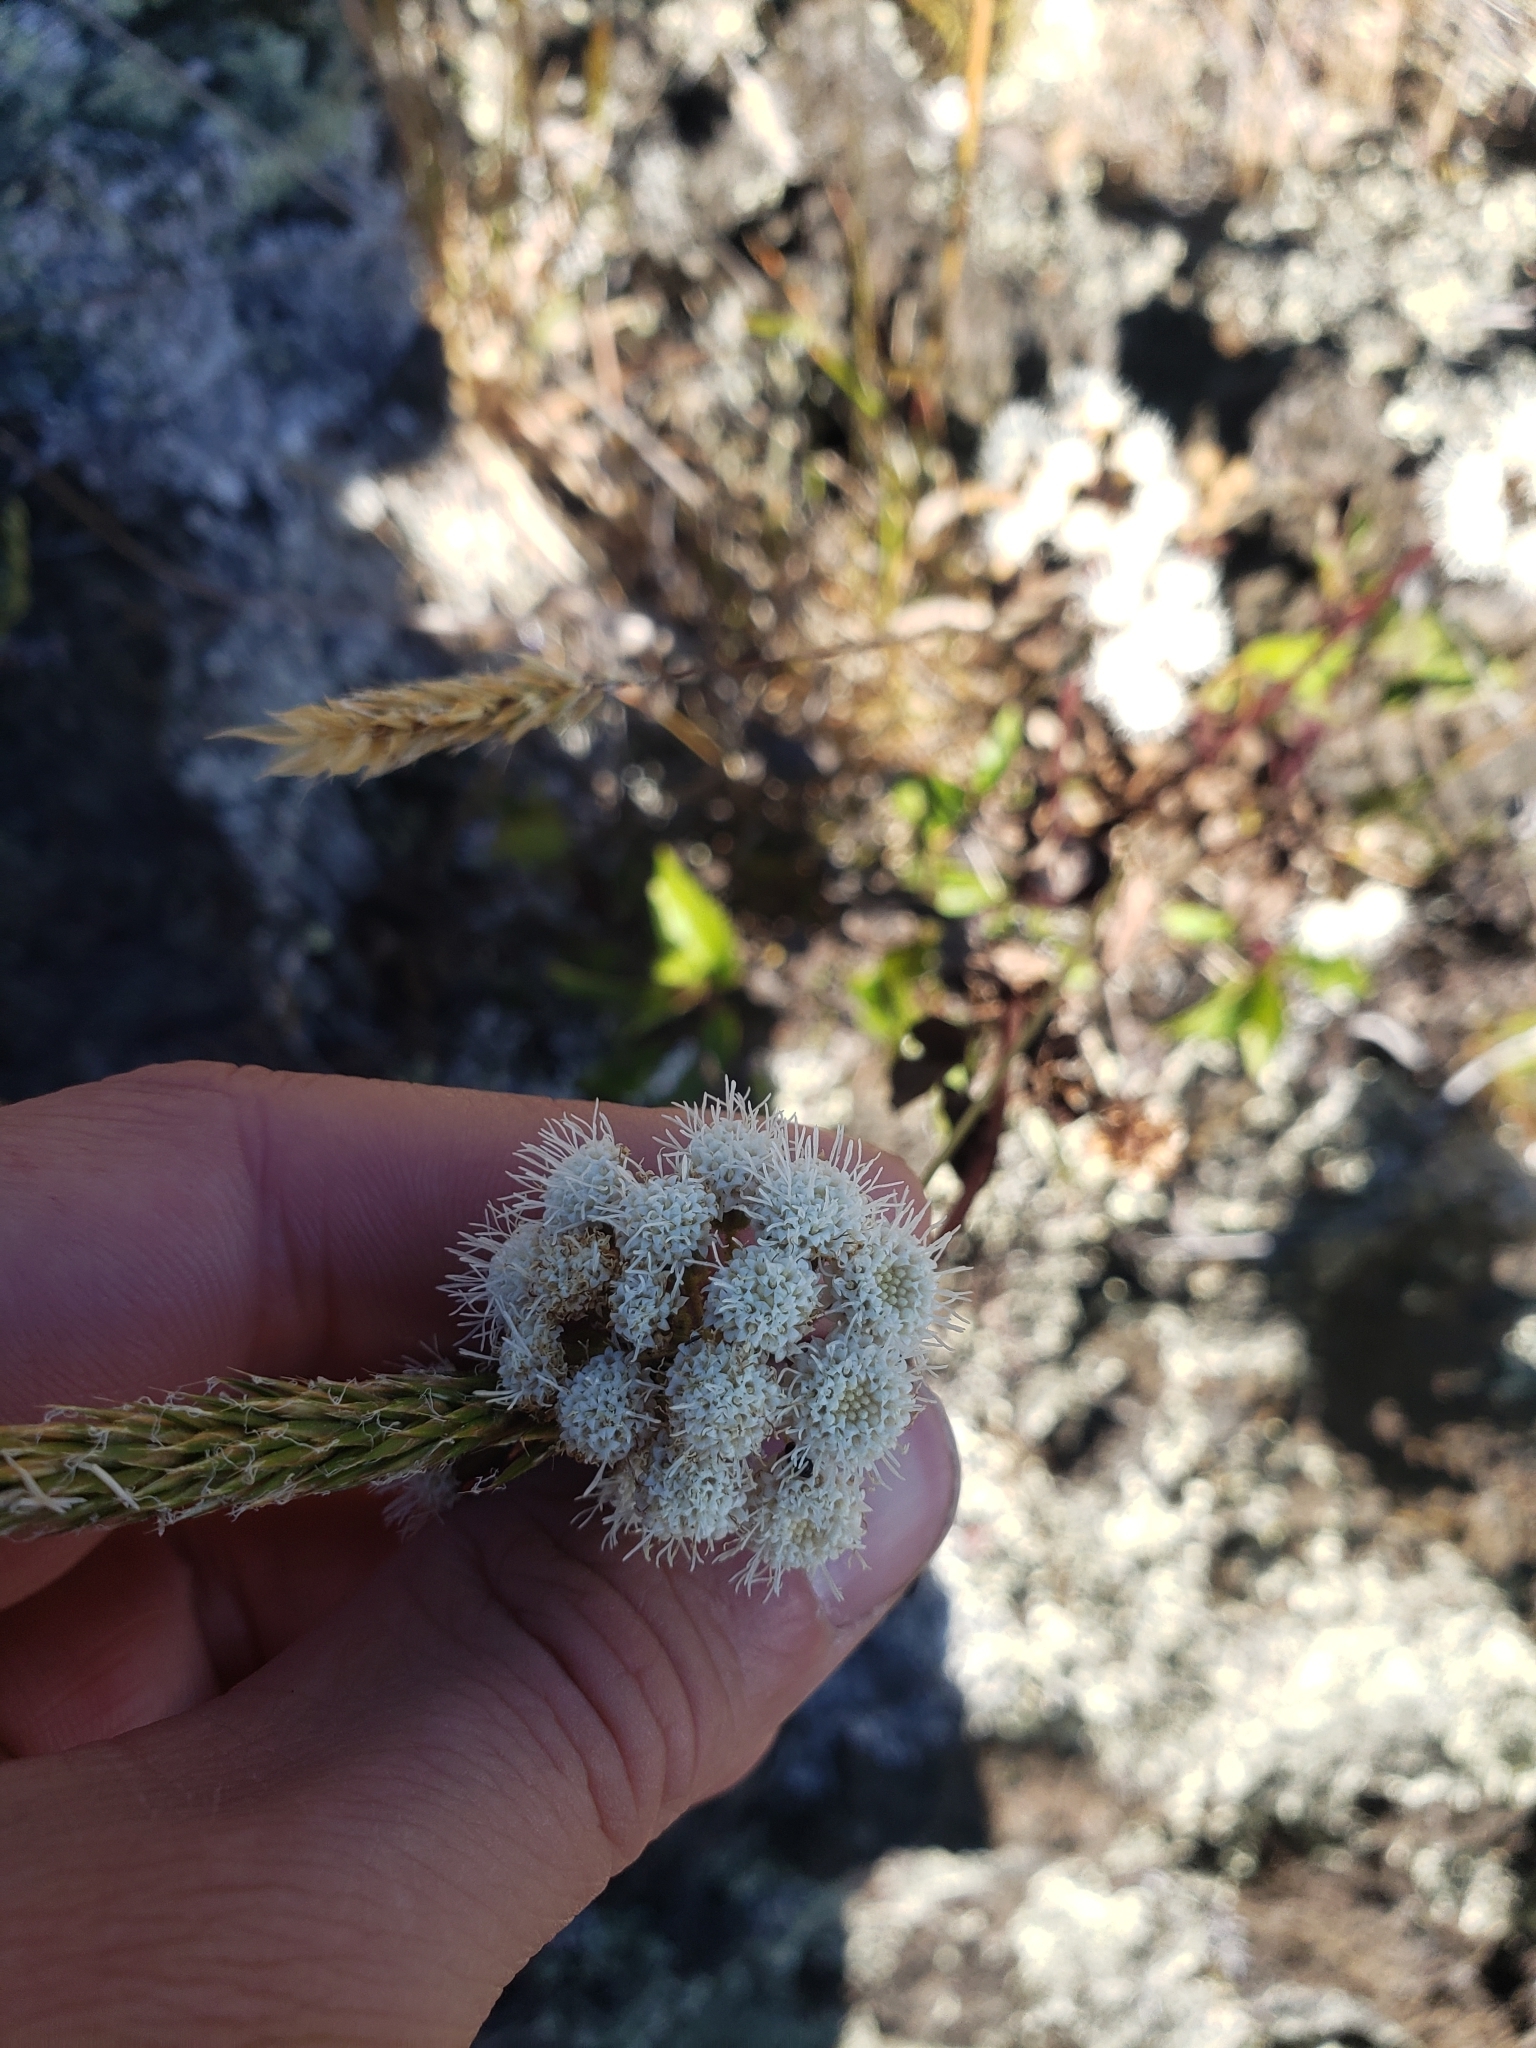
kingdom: Plantae
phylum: Tracheophyta
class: Magnoliopsida
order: Asterales
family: Asteraceae
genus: Ageratina
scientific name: Ageratina adenophora
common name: Sticky snakeroot
